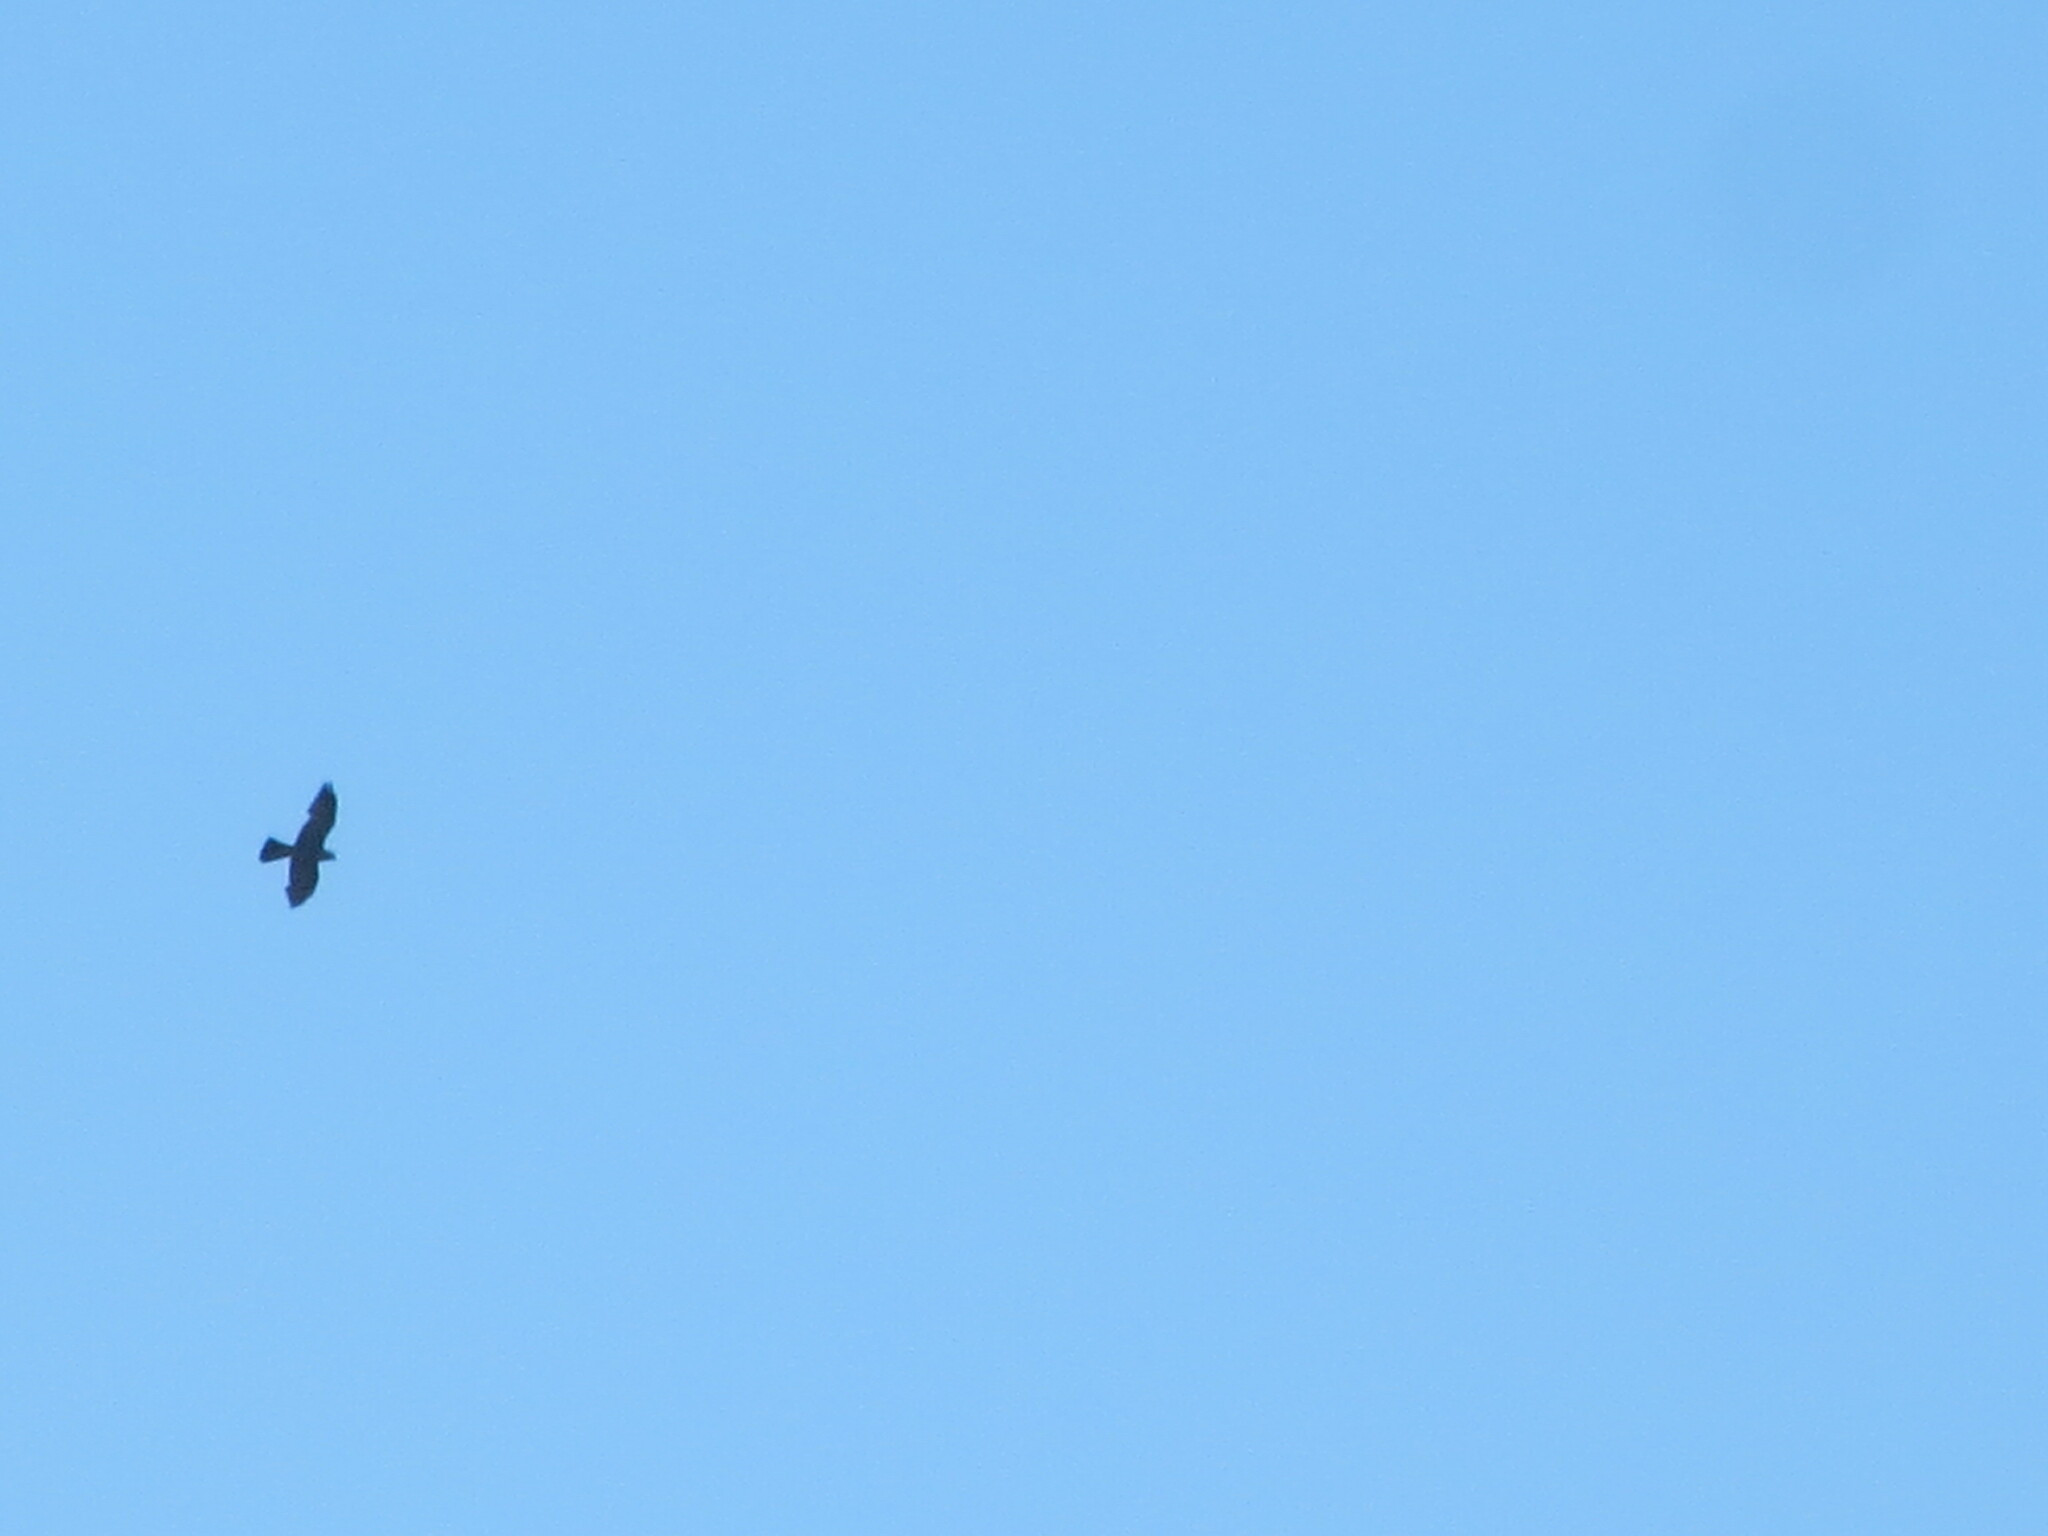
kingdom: Animalia
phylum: Chordata
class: Aves
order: Accipitriformes
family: Accipitridae
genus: Ictinia
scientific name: Ictinia mississippiensis
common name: Mississippi kite
